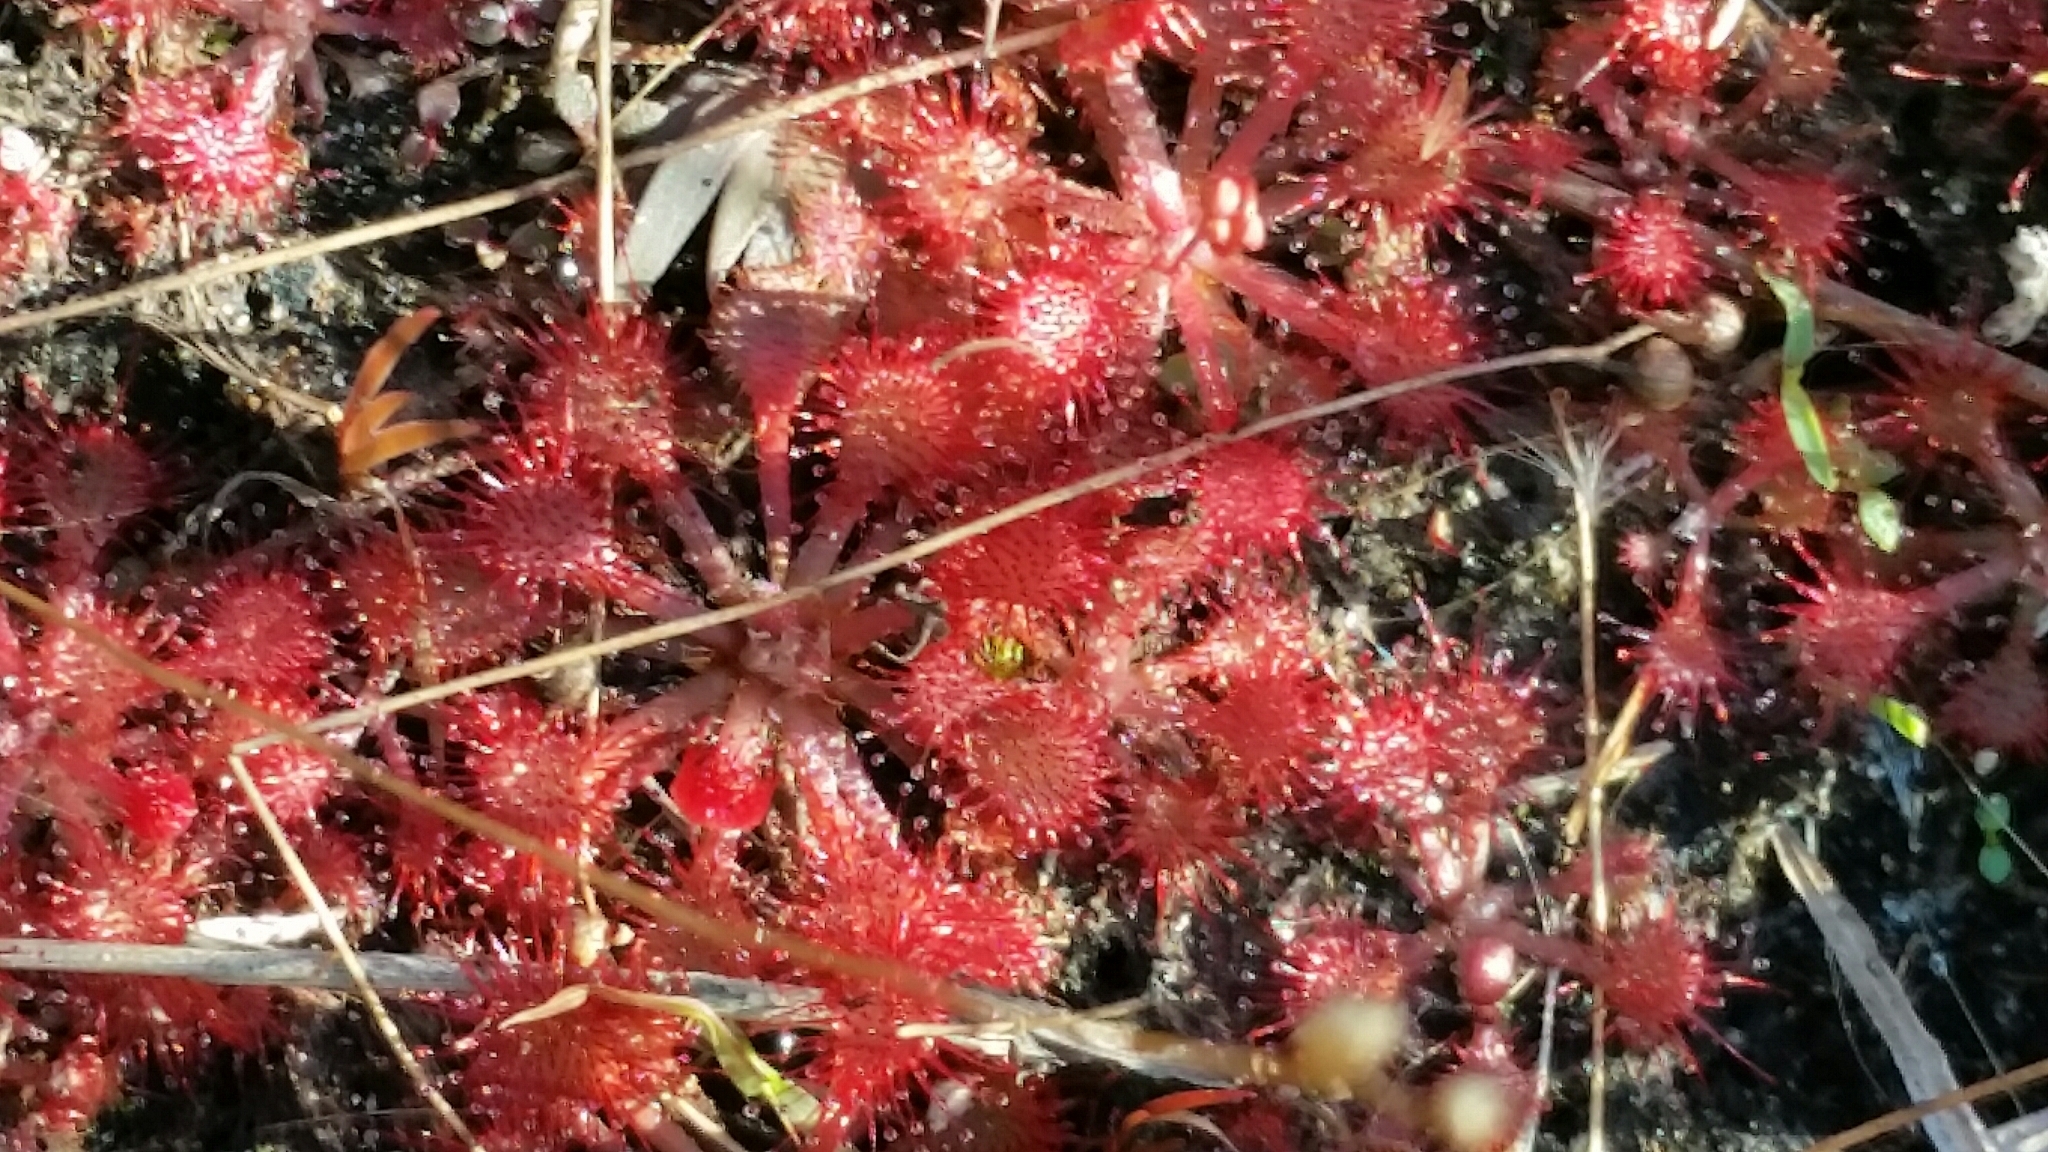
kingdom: Plantae
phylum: Tracheophyta
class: Magnoliopsida
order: Caryophyllales
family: Droseraceae
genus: Drosera
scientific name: Drosera capillaris
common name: Pink sundew
